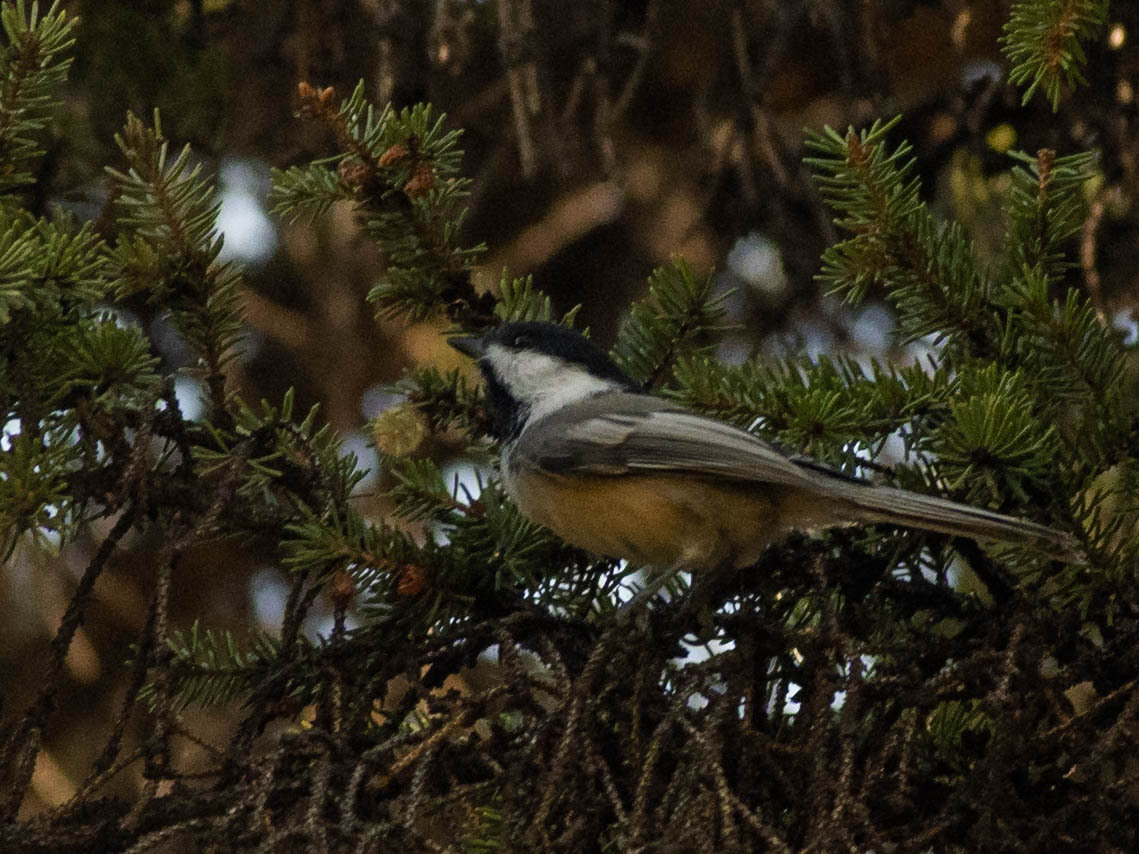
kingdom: Animalia
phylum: Chordata
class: Aves
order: Passeriformes
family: Paridae
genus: Poecile
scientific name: Poecile atricapillus
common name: Black-capped chickadee
